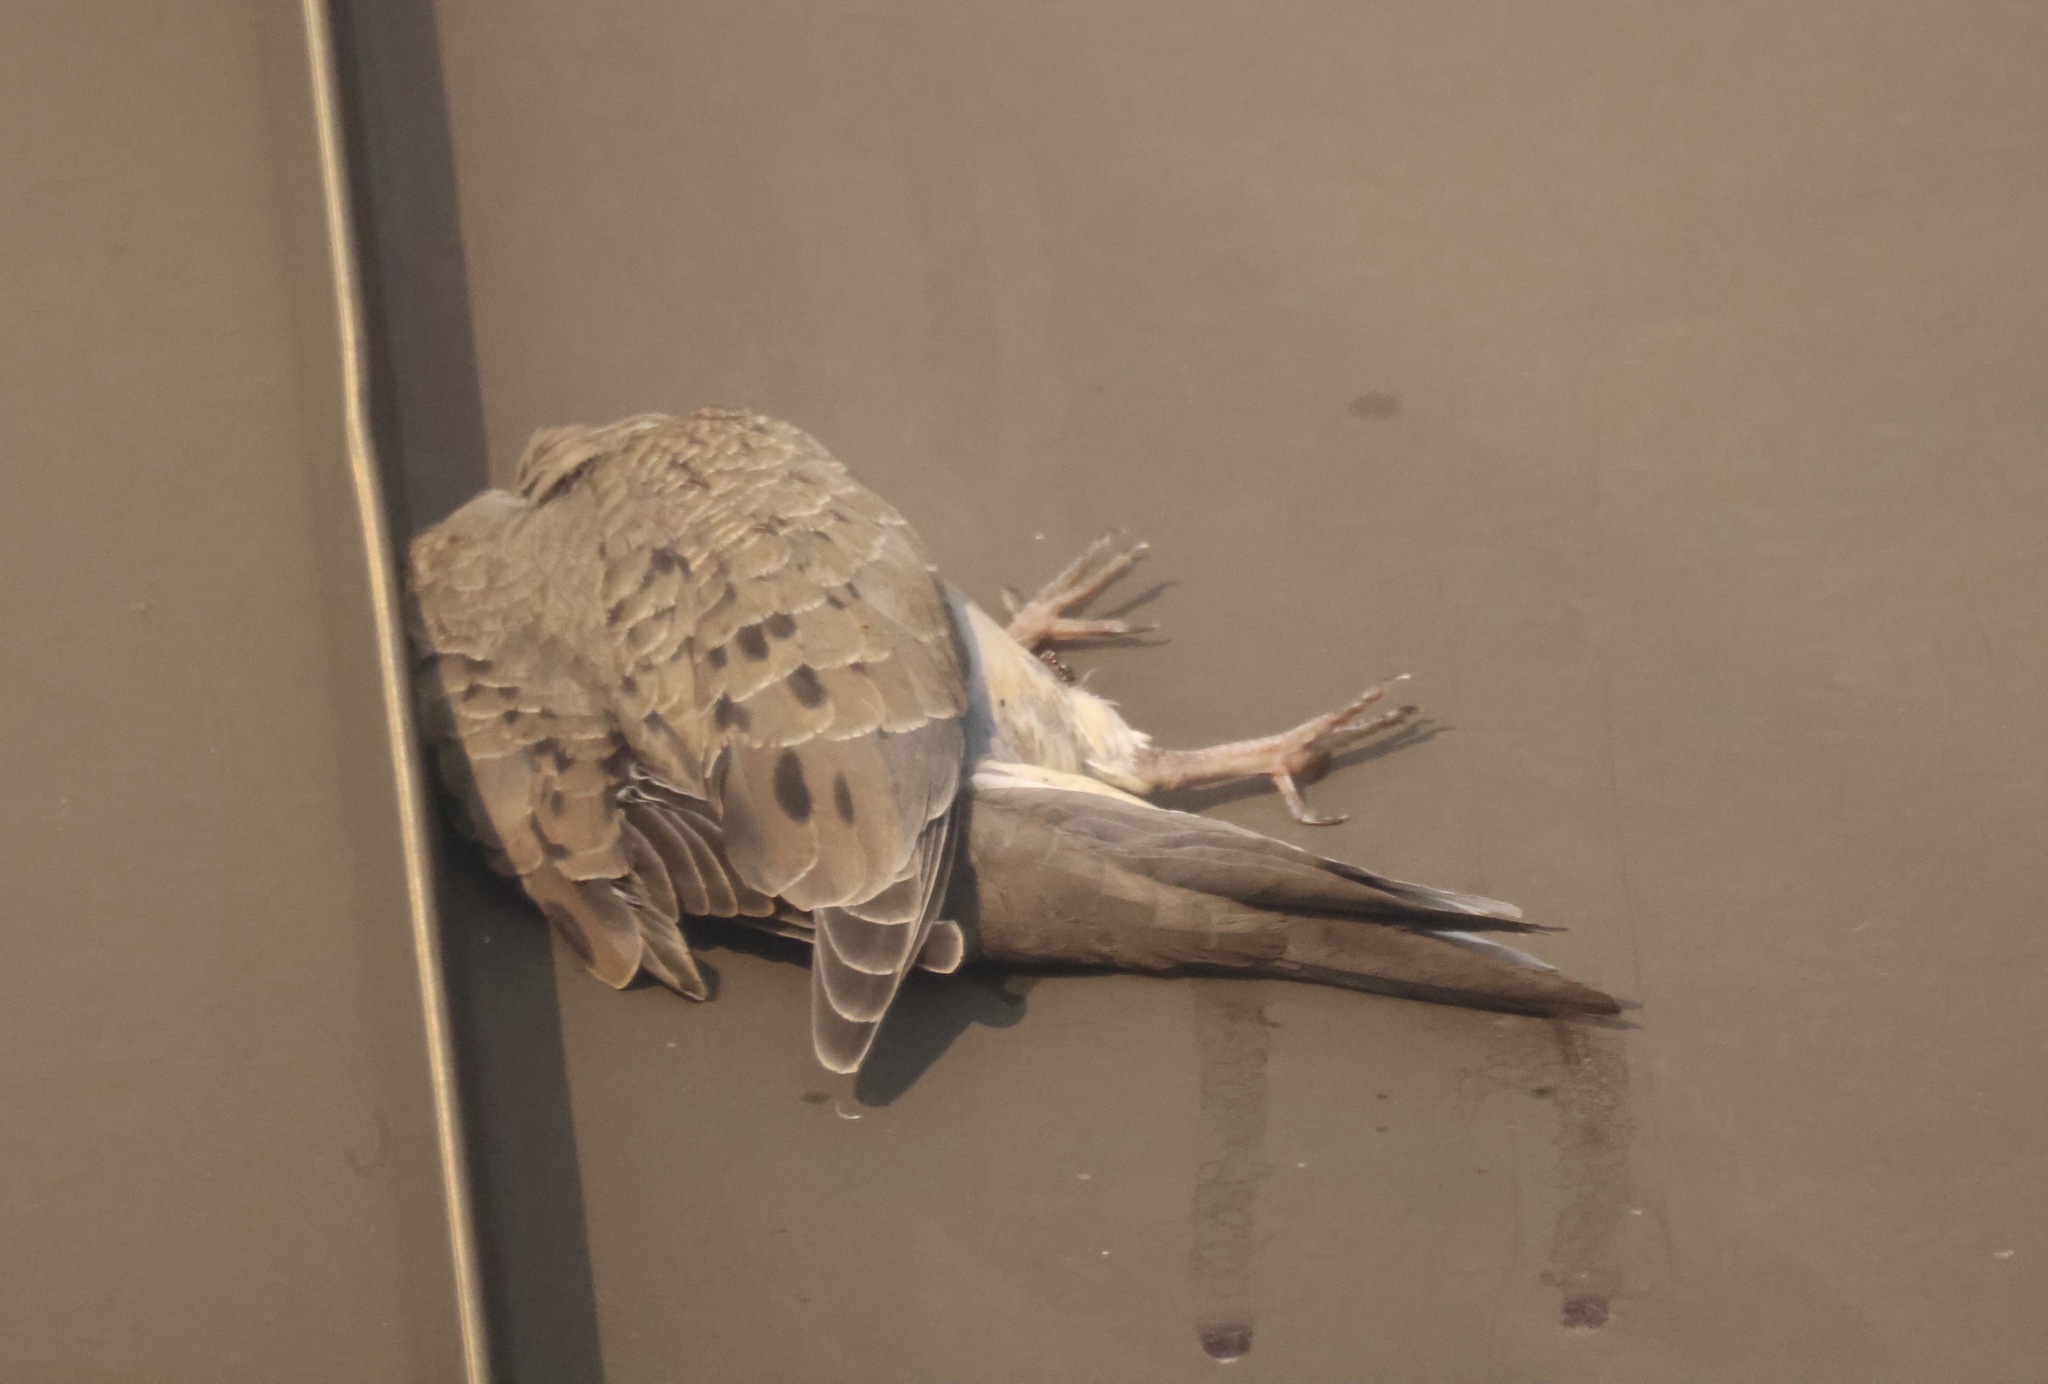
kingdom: Animalia
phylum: Chordata
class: Aves
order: Columbiformes
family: Columbidae
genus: Zenaida
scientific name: Zenaida macroura
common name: Mourning dove
